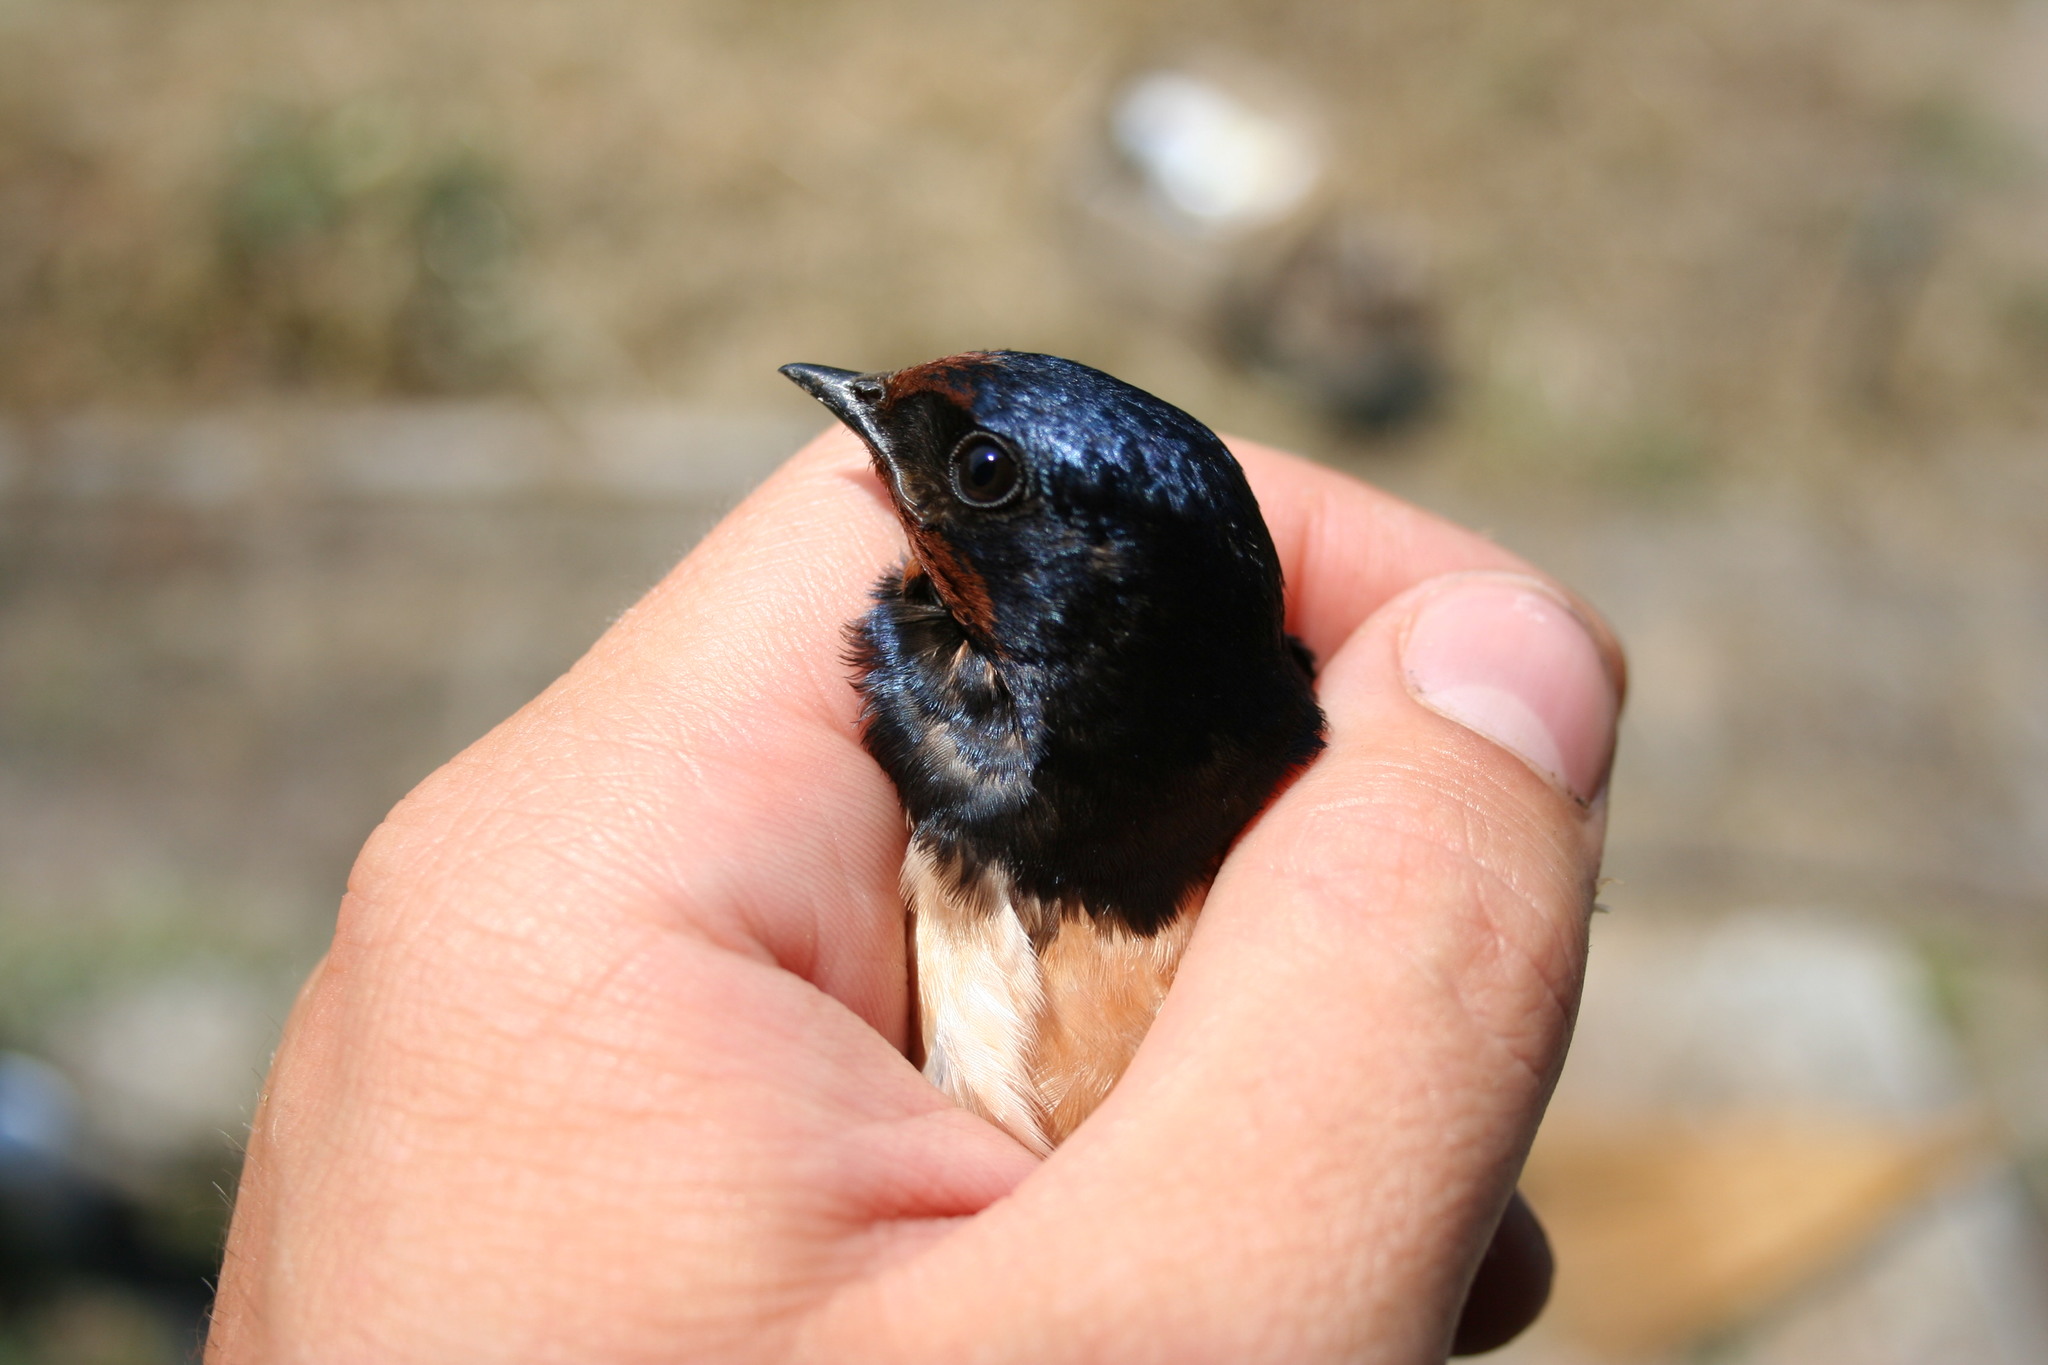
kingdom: Animalia
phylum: Chordata
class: Aves
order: Passeriformes
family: Hirundinidae
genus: Hirundo
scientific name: Hirundo rustica
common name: Barn swallow
